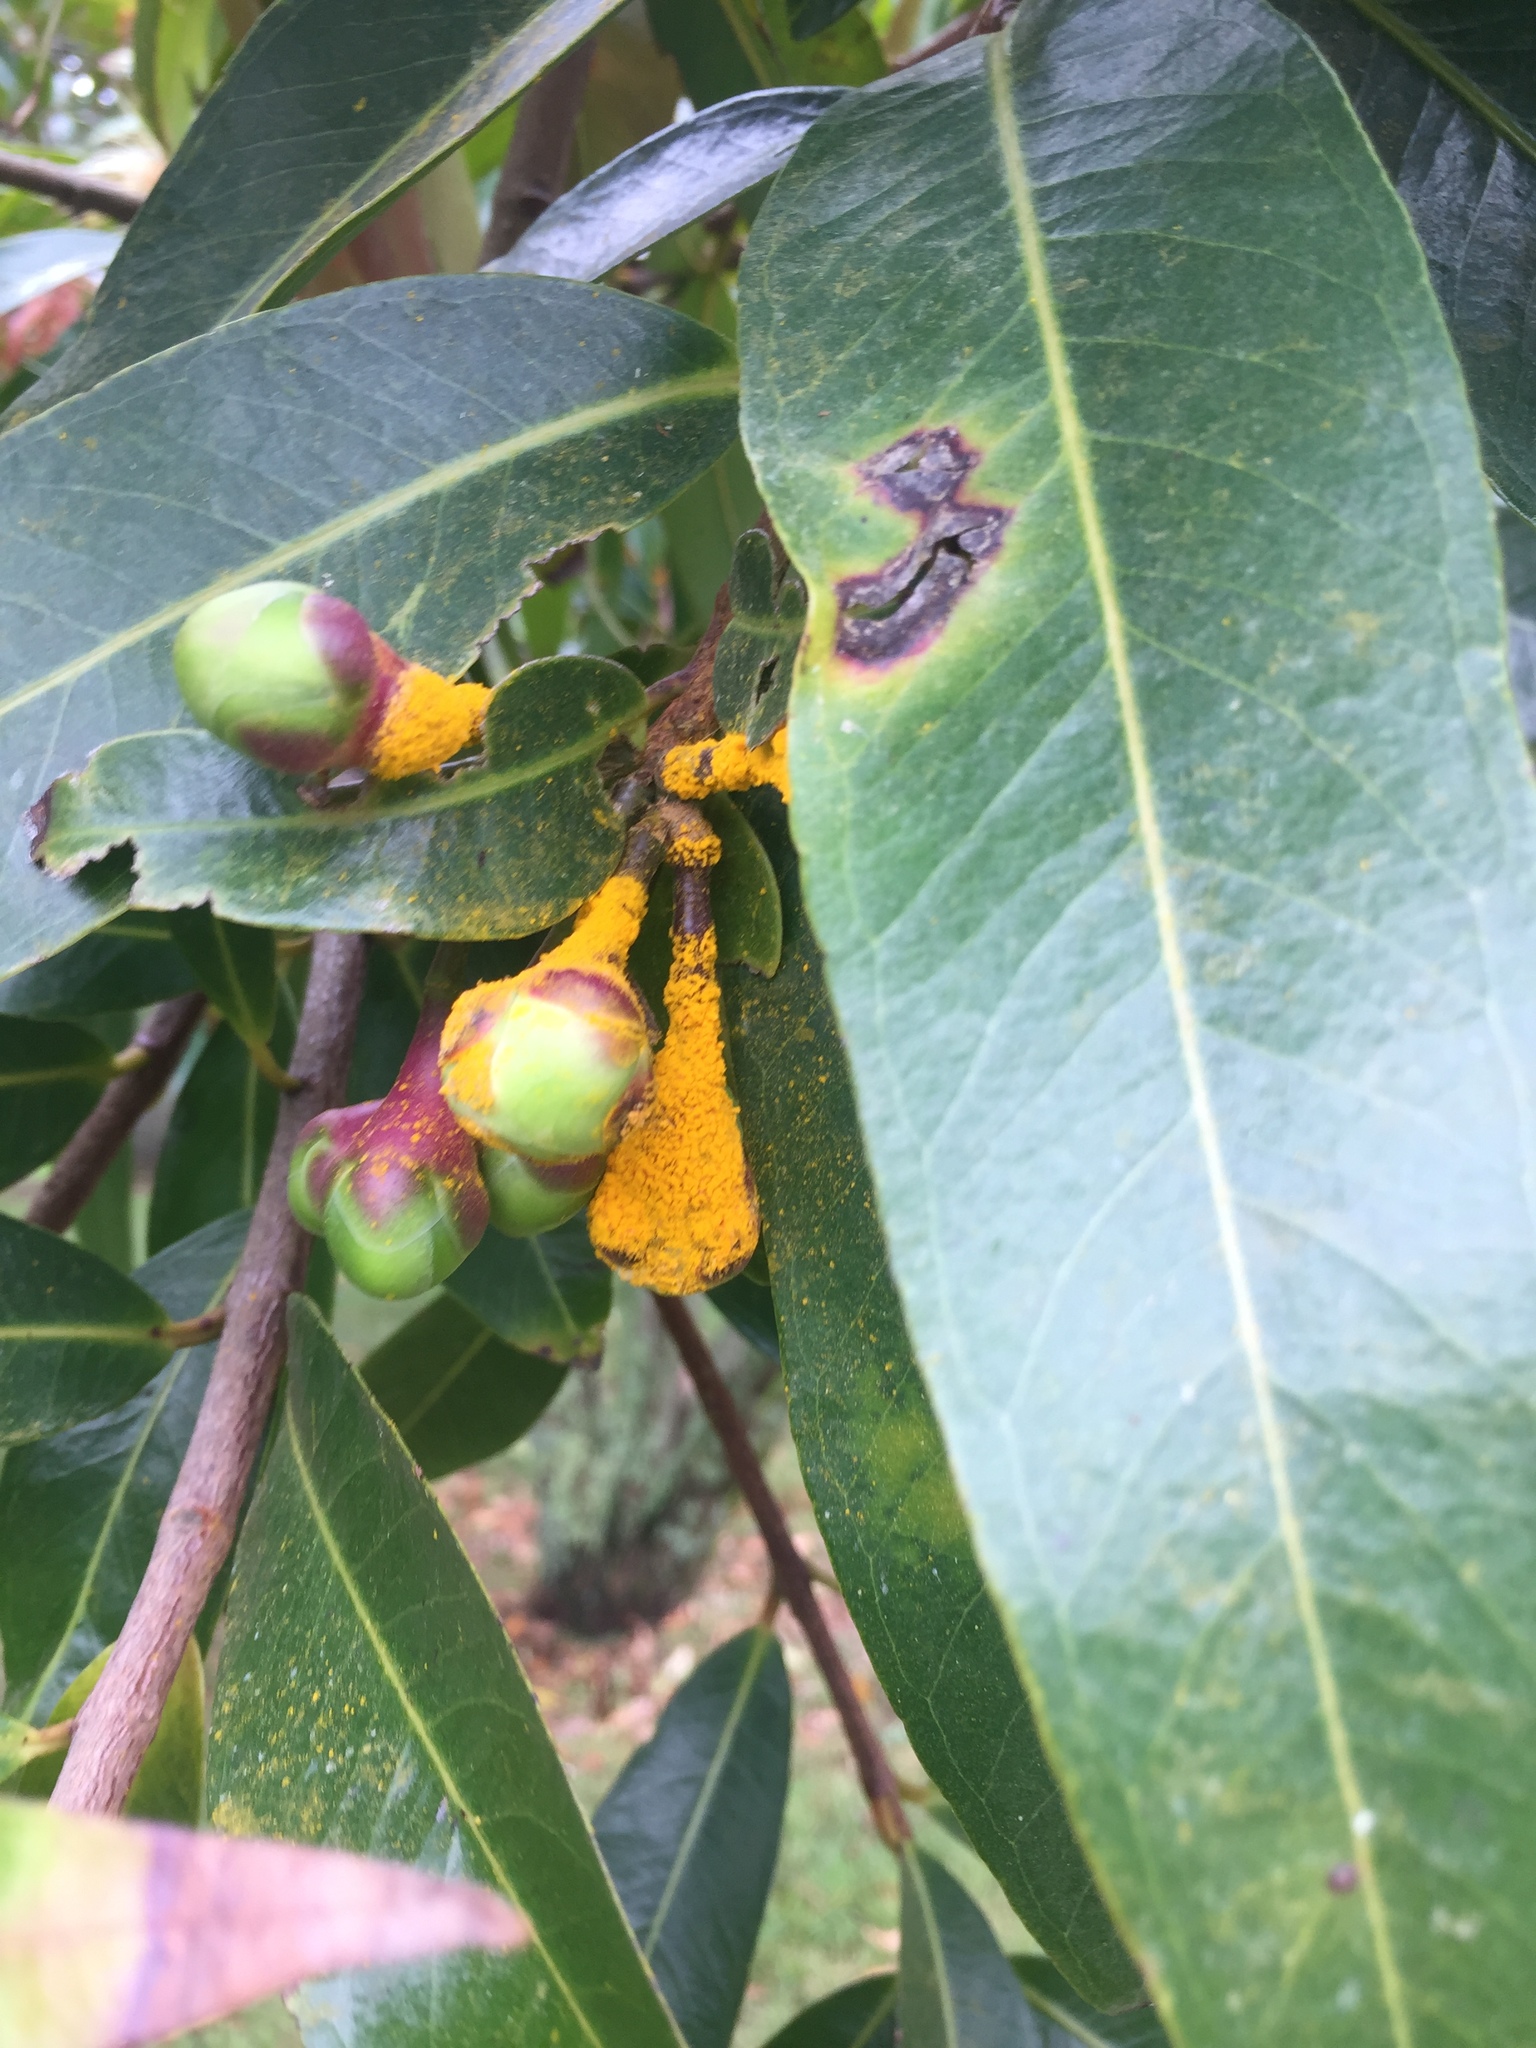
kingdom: Fungi
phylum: Basidiomycota
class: Pucciniomycetes
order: Pucciniales
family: Sphaerophragmiaceae
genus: Austropuccinia
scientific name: Austropuccinia psidii
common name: Myrtle rust
